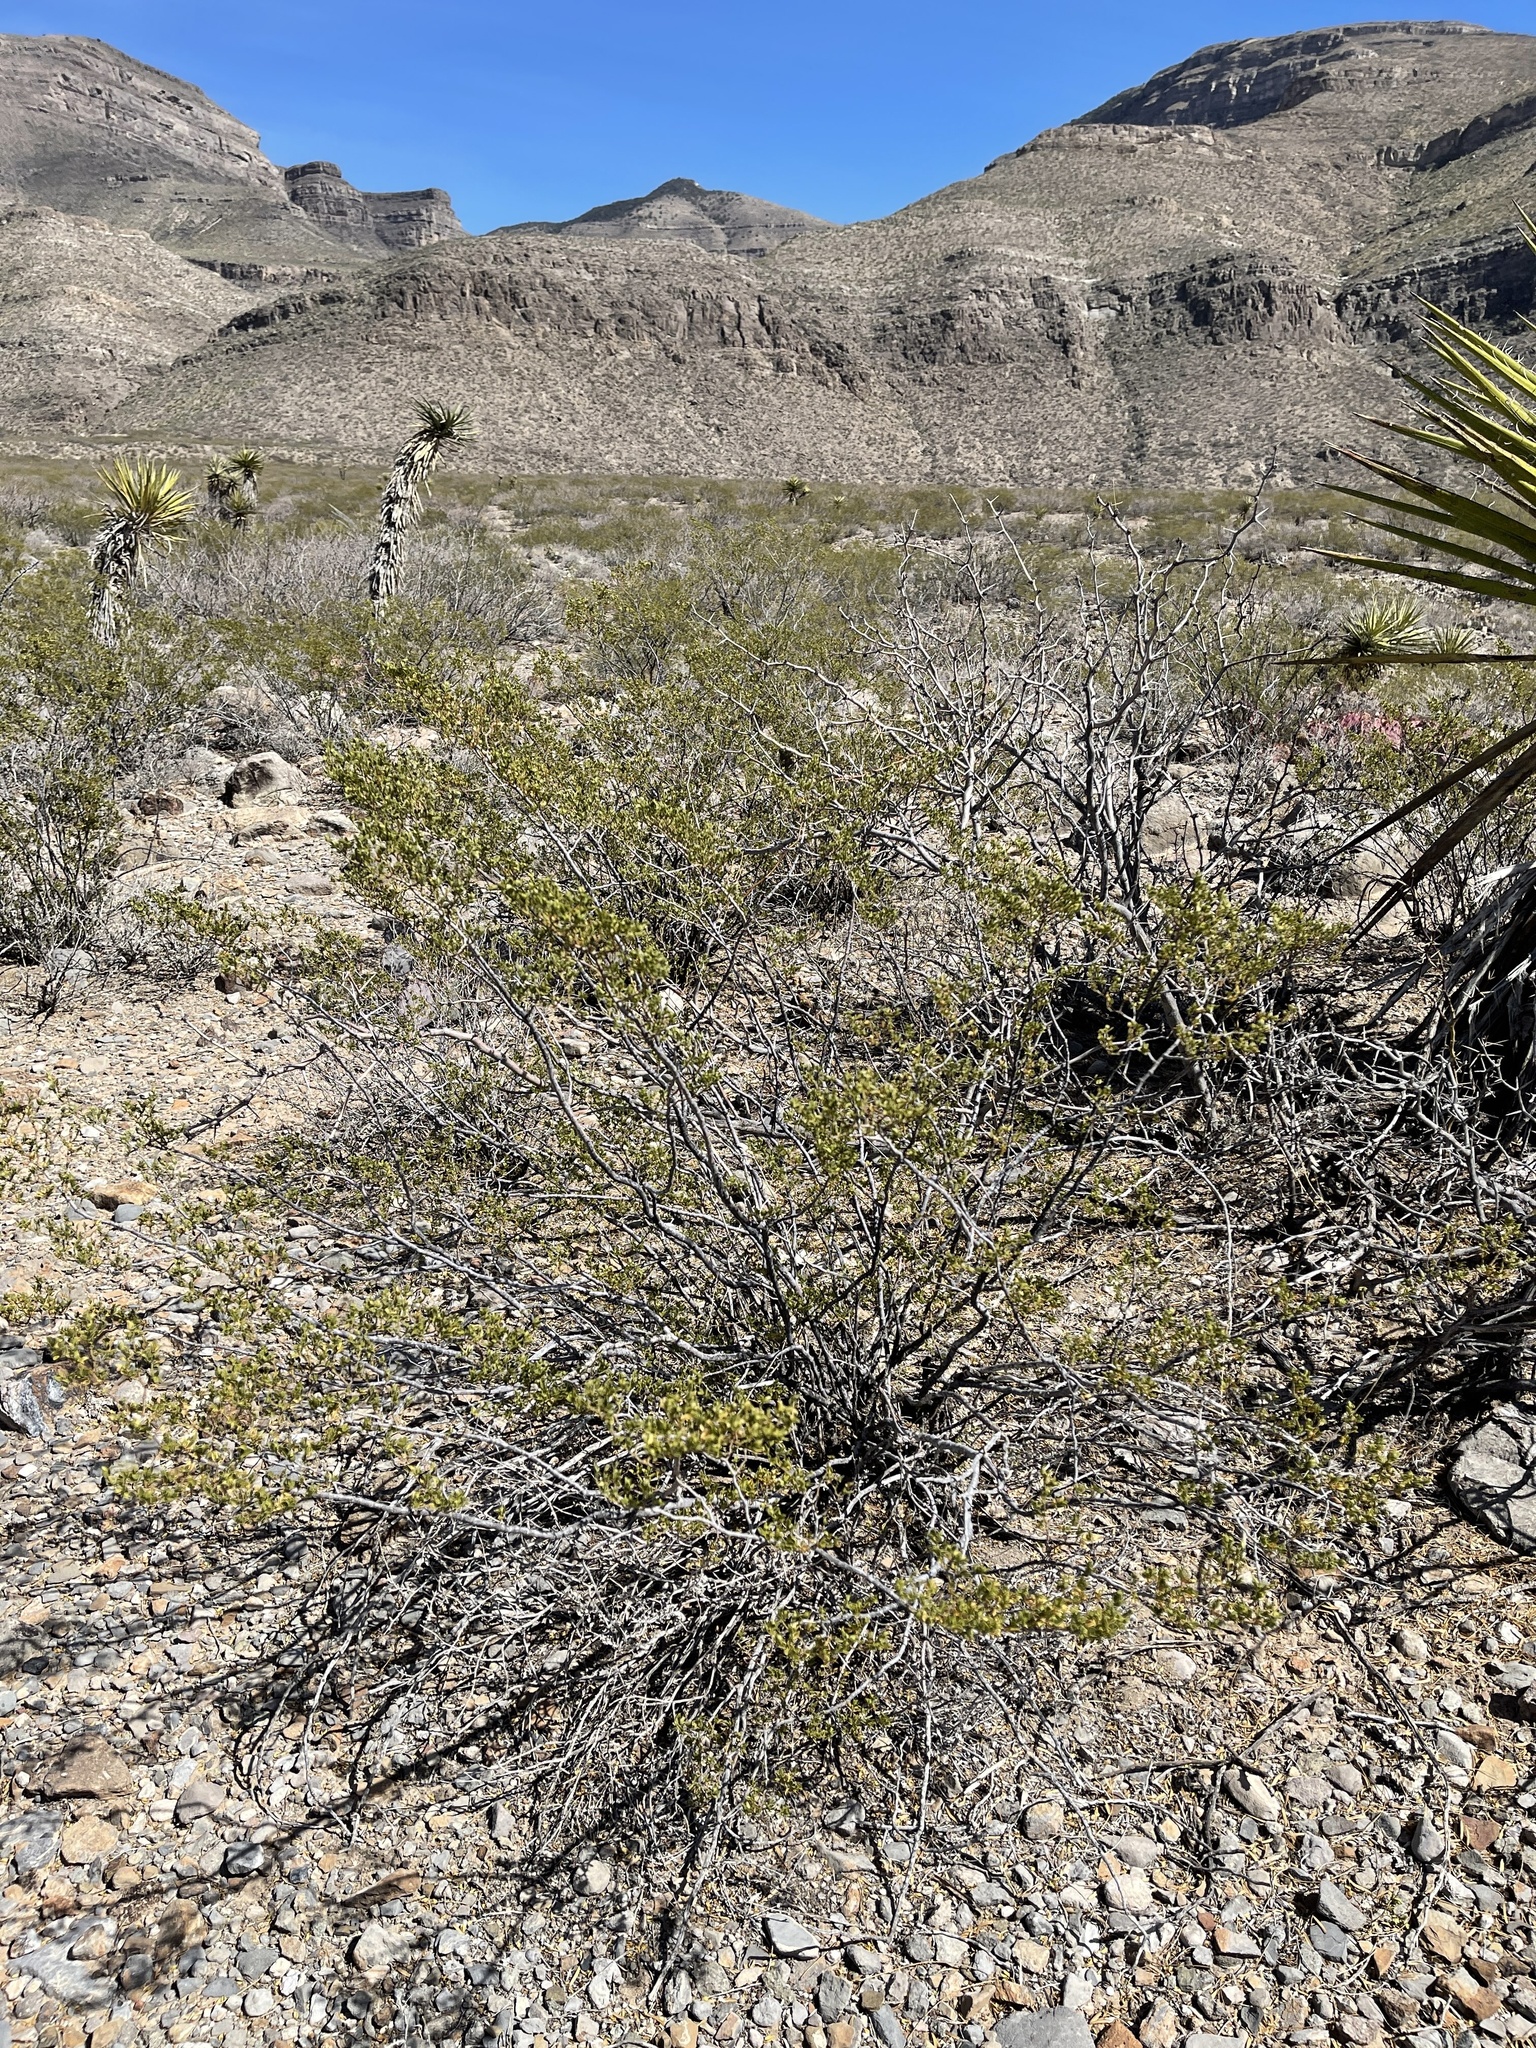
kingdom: Plantae
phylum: Tracheophyta
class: Magnoliopsida
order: Zygophyllales
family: Zygophyllaceae
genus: Larrea
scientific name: Larrea tridentata
